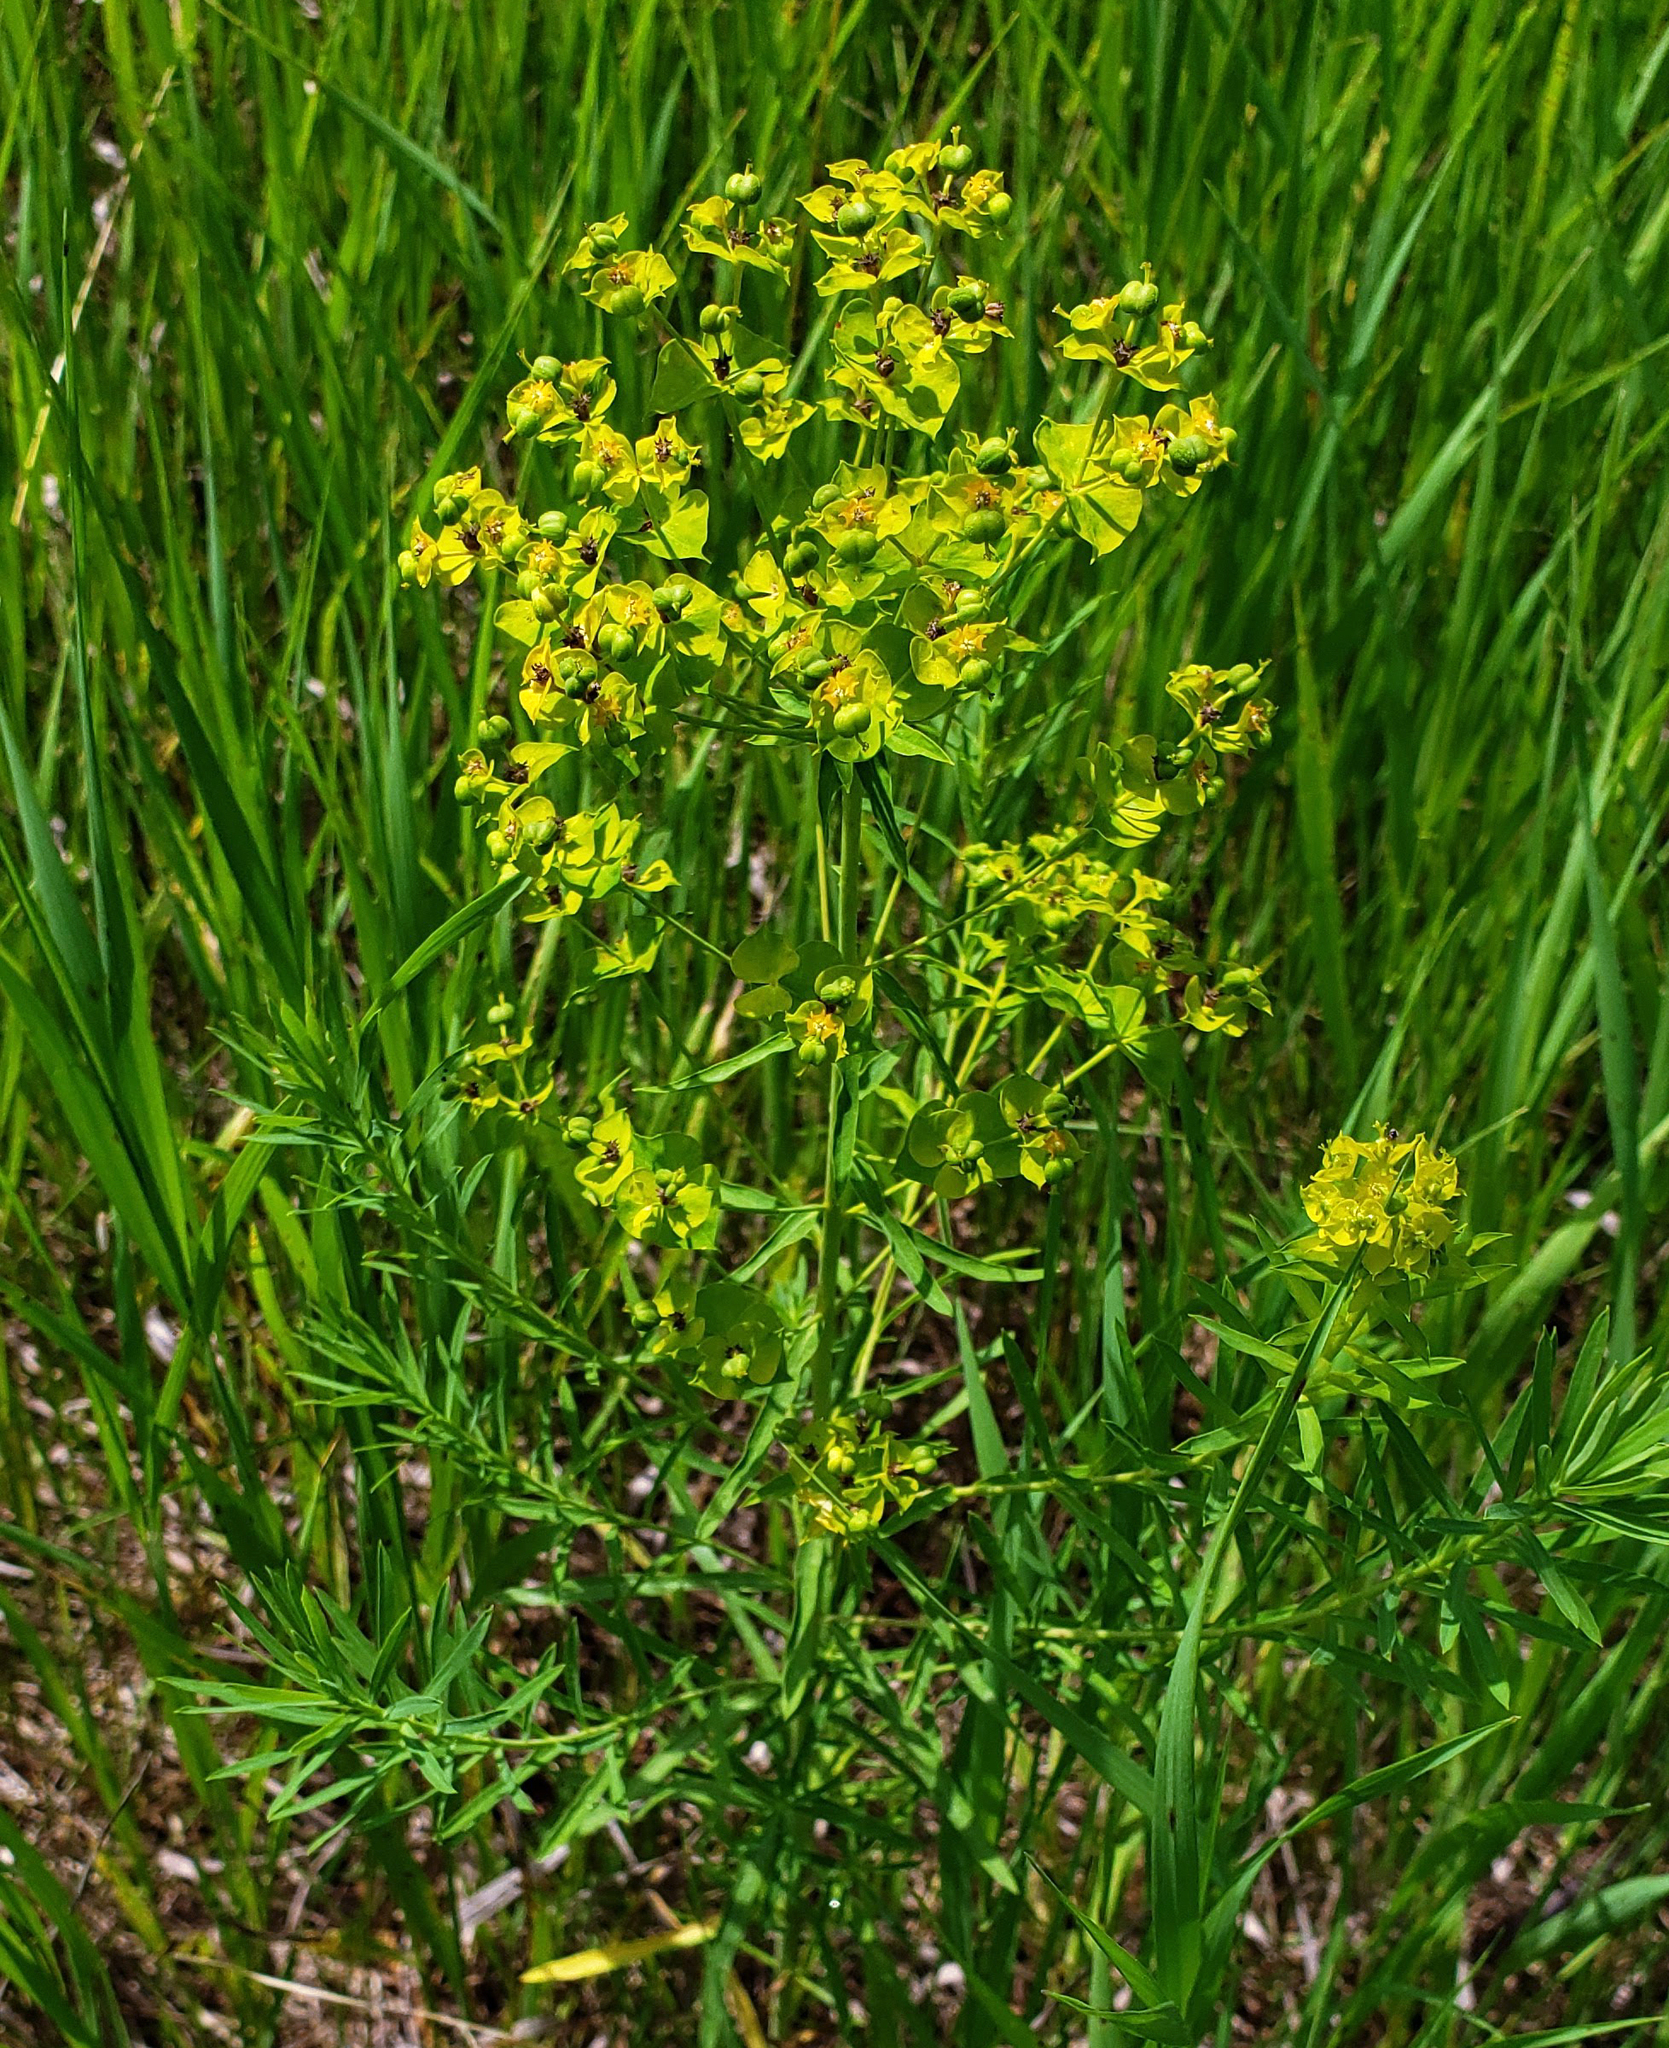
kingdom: Plantae
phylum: Tracheophyta
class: Magnoliopsida
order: Malpighiales
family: Euphorbiaceae
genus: Euphorbia
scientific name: Euphorbia virgata
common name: Leafy spurge
